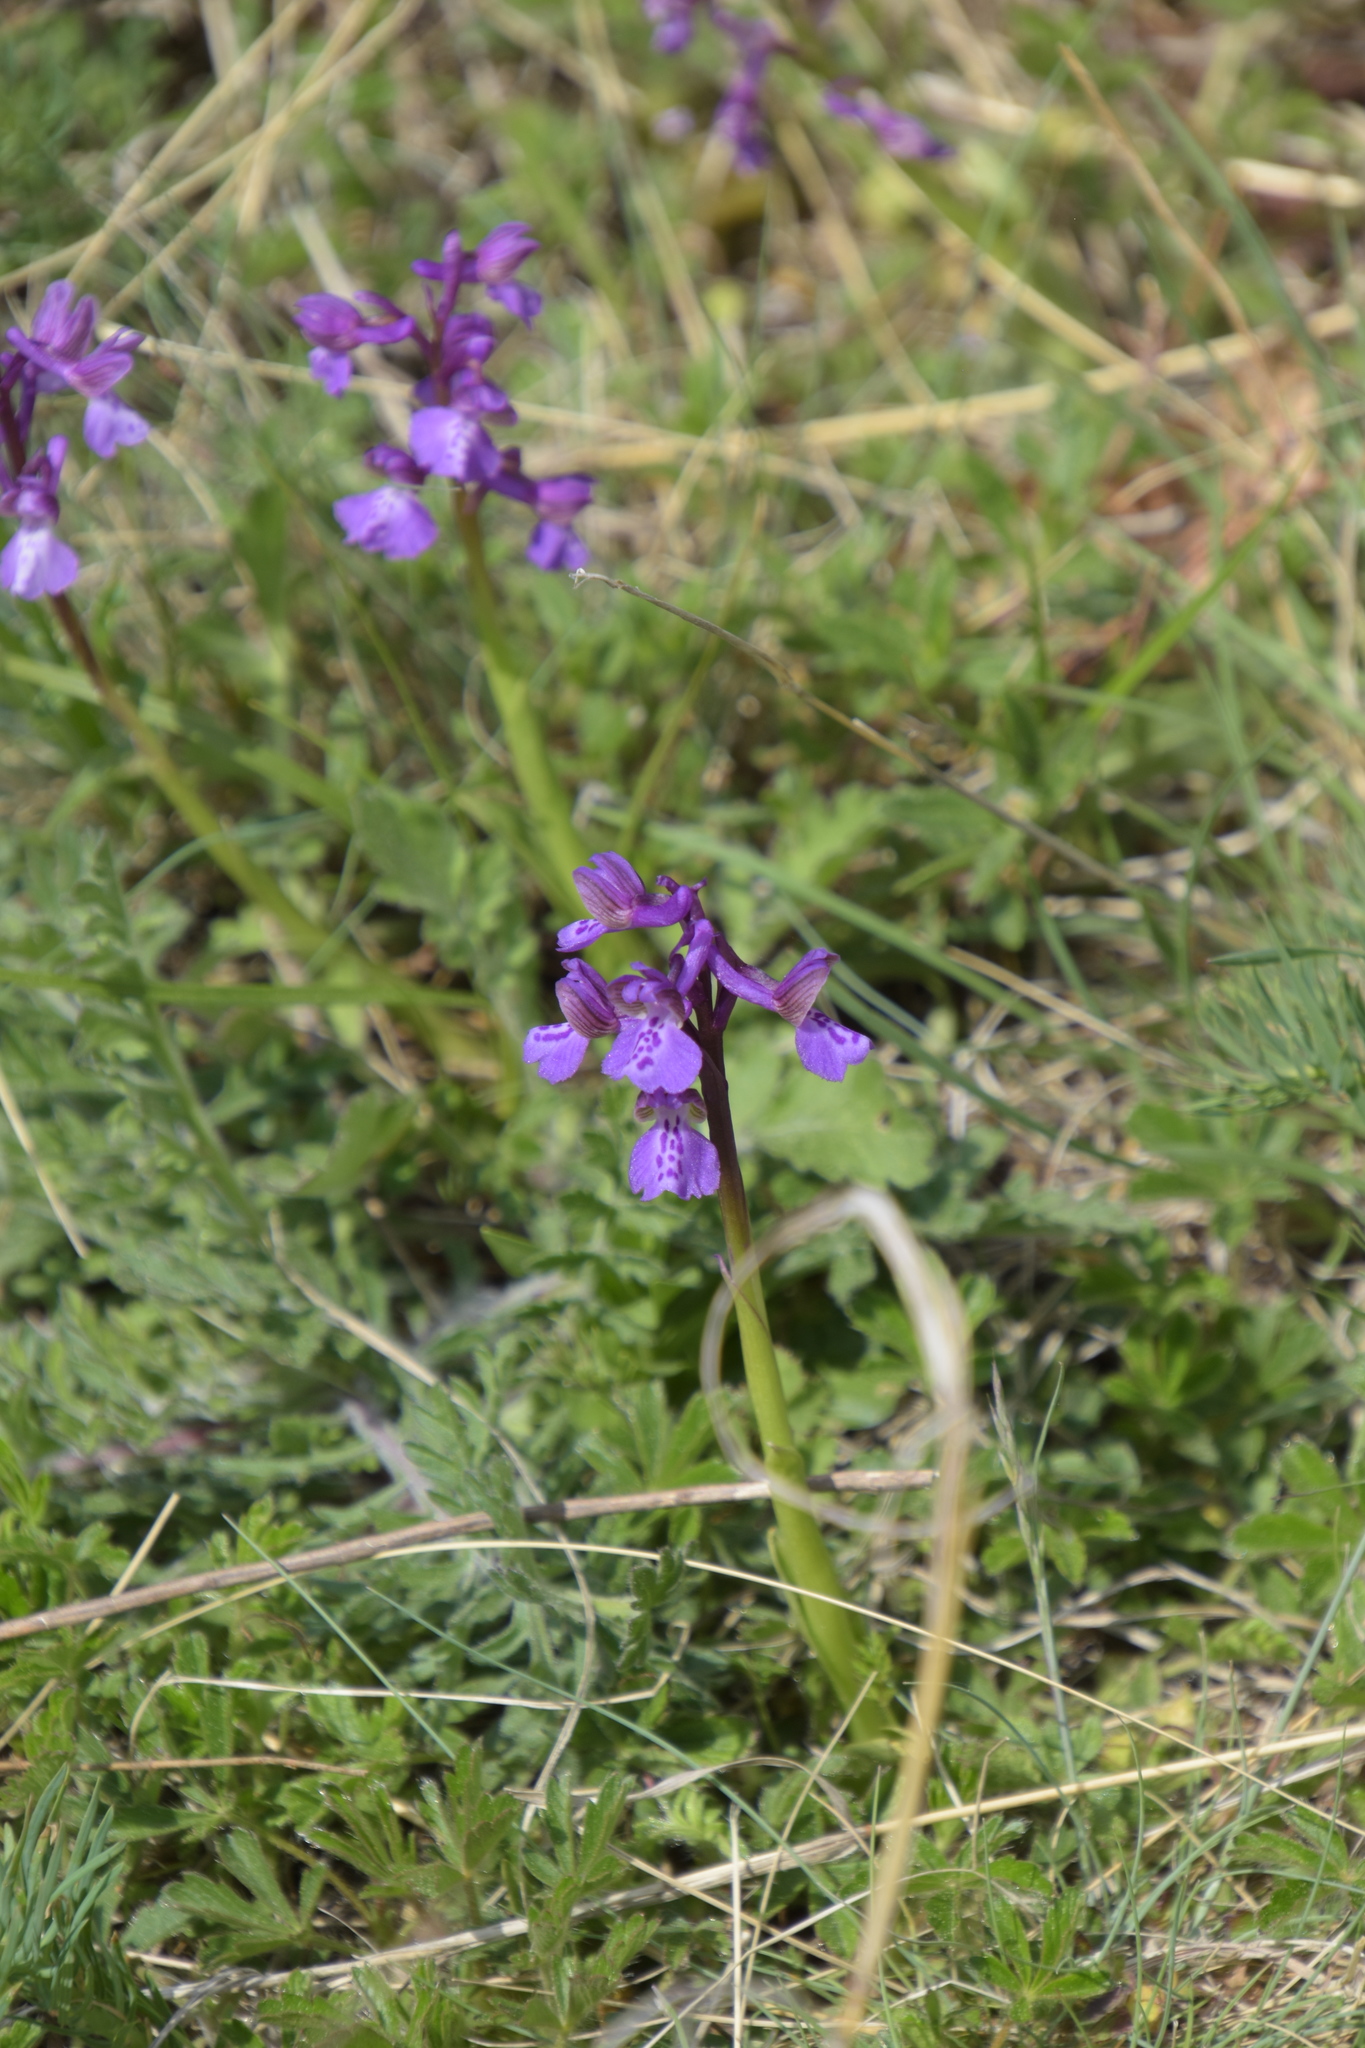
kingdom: Plantae
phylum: Tracheophyta
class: Liliopsida
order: Asparagales
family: Orchidaceae
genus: Anacamptis
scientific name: Anacamptis morio
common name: Green-winged orchid
